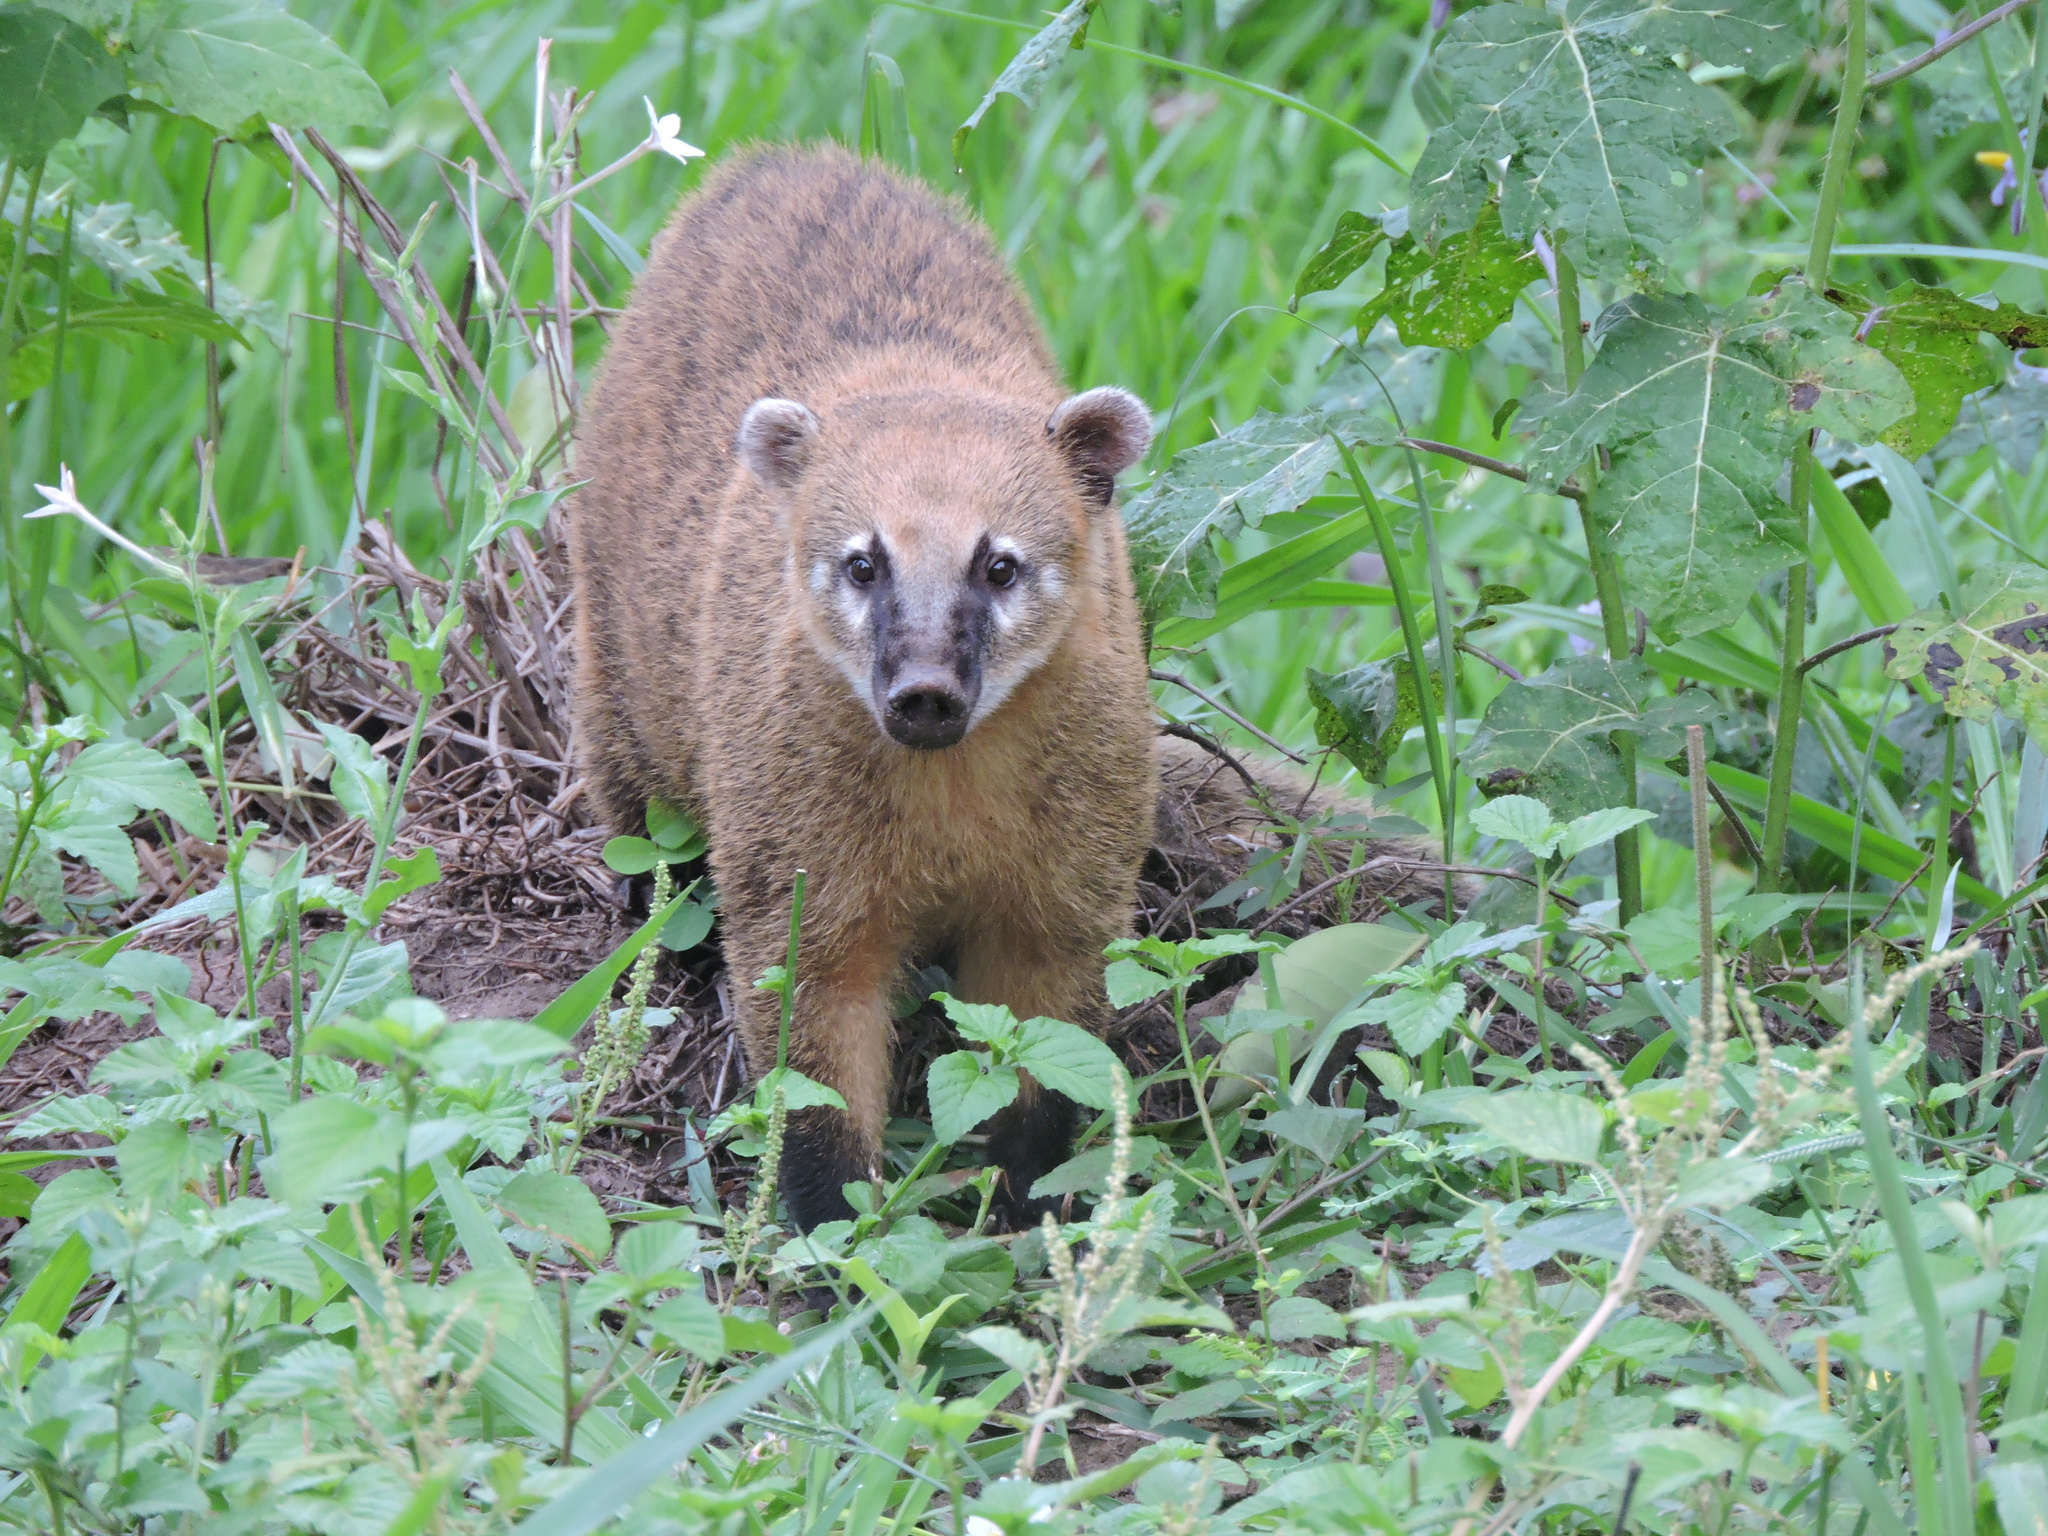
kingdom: Animalia
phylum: Chordata
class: Mammalia
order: Carnivora
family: Procyonidae
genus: Nasua
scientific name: Nasua nasua
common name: South american coati
